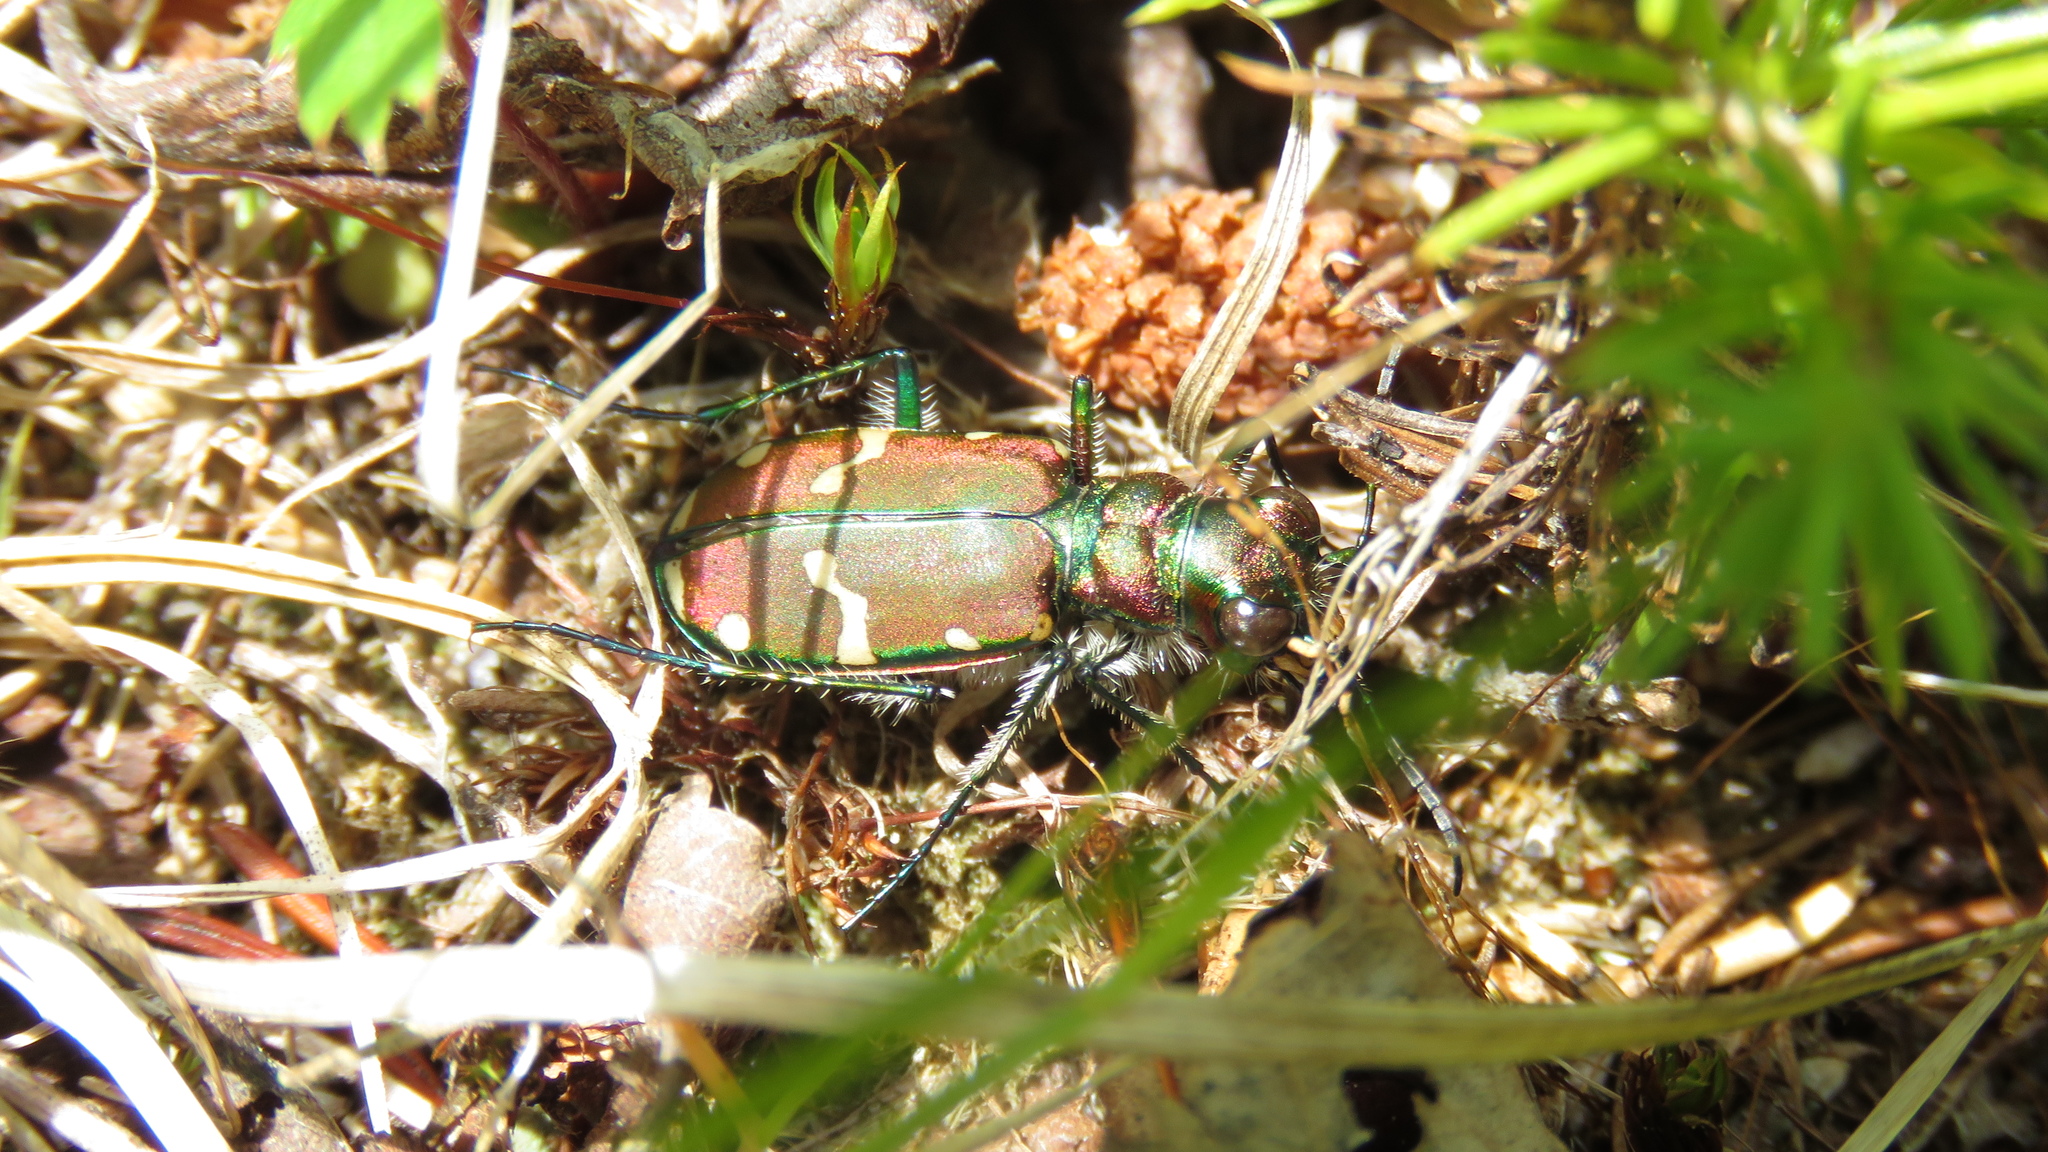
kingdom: Animalia
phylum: Arthropoda
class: Insecta
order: Coleoptera
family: Carabidae
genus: Cicindela
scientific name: Cicindela limbalis
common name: Common claybank tiger beetle
